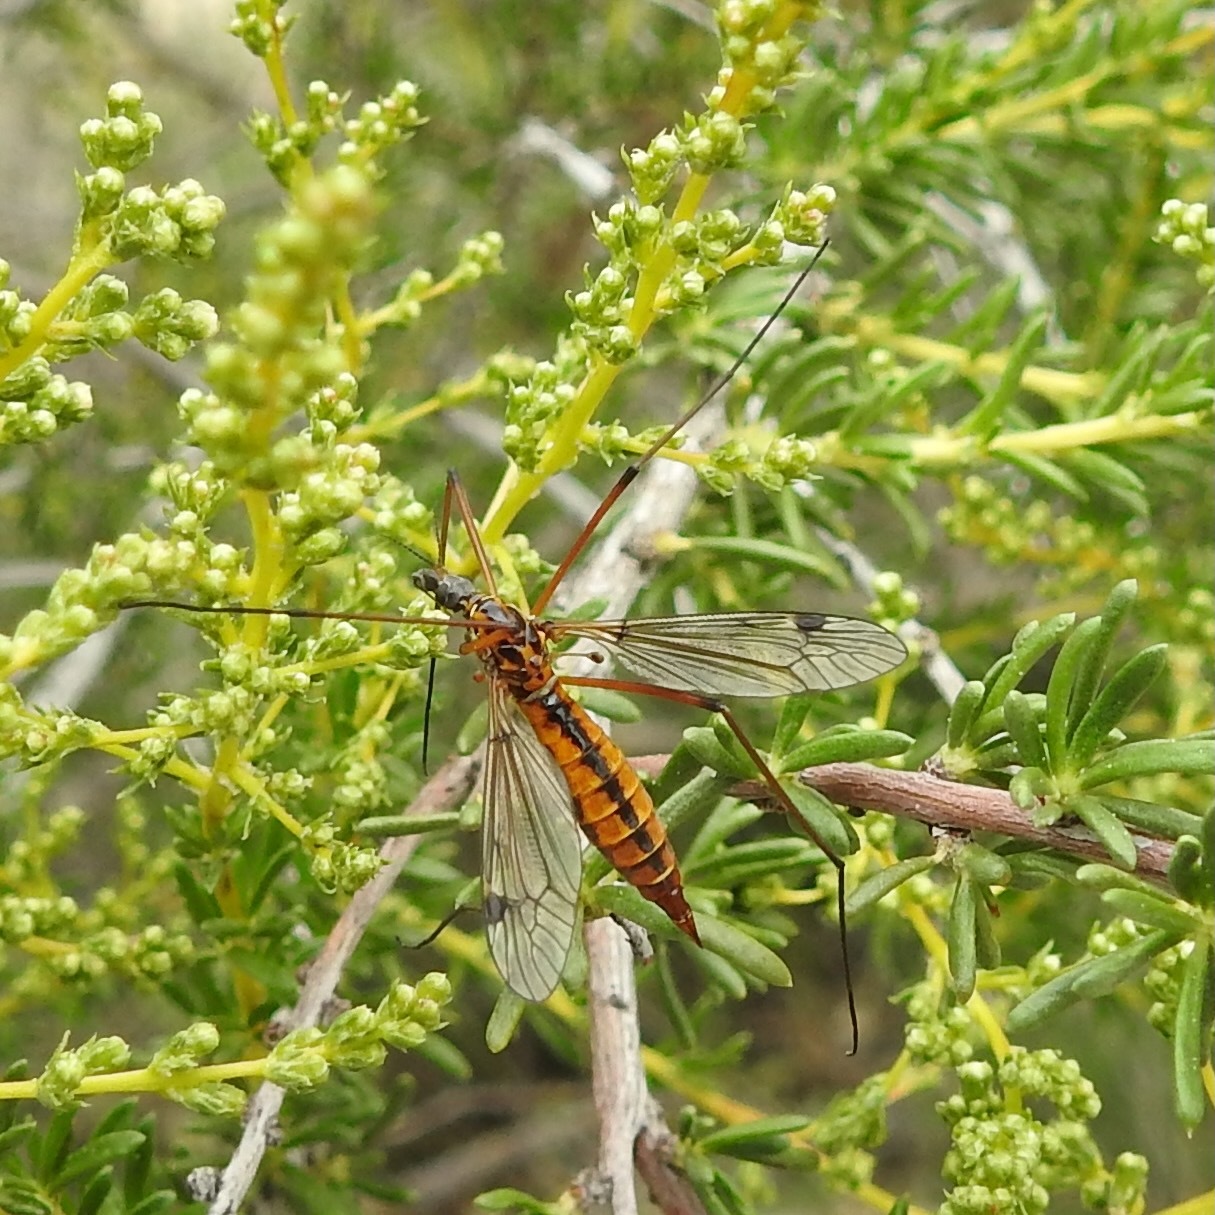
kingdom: Plantae
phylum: Tracheophyta
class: Magnoliopsida
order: Rosales
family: Rosaceae
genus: Adenostoma
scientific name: Adenostoma fasciculatum
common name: Chamise
